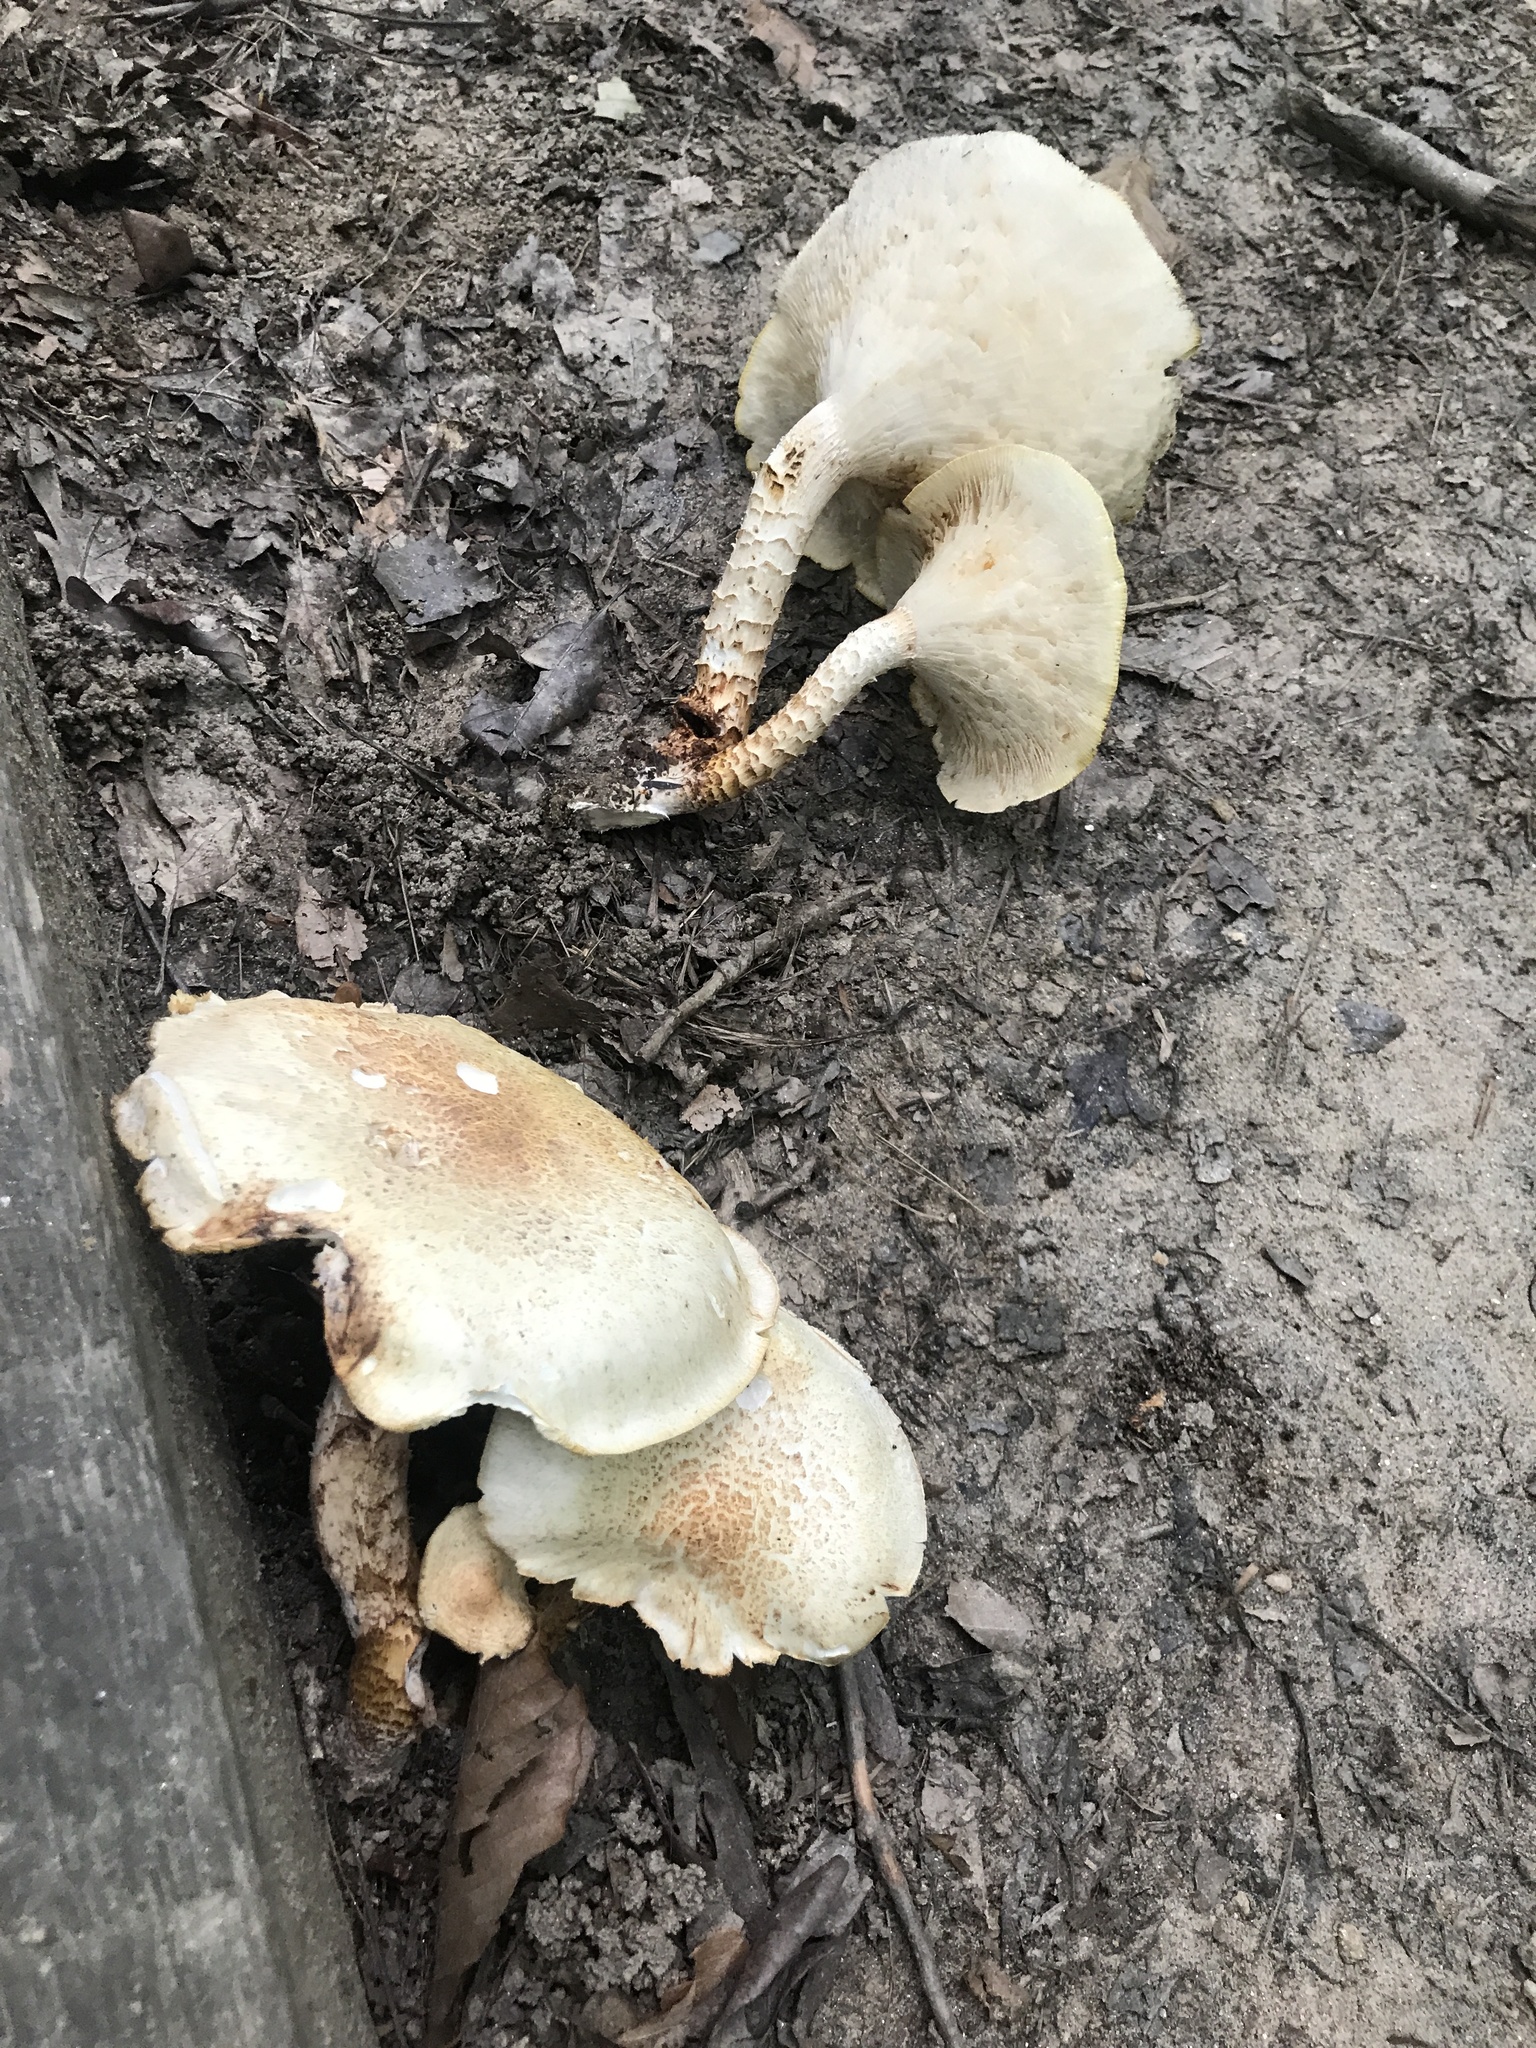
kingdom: Fungi
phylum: Basidiomycota
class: Agaricomycetes
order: Gloeophyllales
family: Gloeophyllaceae
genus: Neolentinus
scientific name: Neolentinus lepideus
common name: Scaly sawgill
